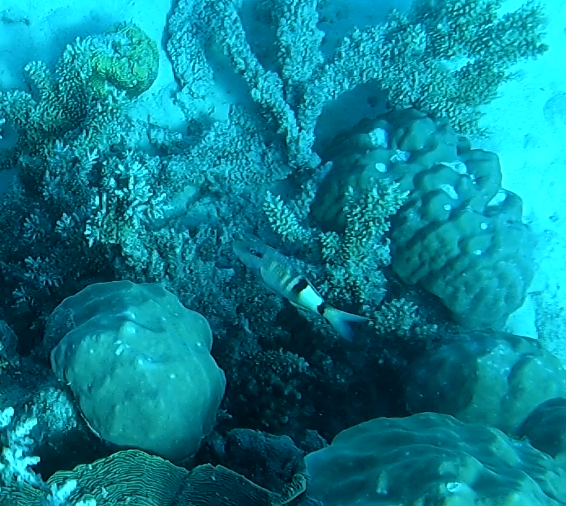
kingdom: Animalia
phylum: Chordata
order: Perciformes
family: Mullidae
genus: Parupeneus
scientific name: Parupeneus multifasciatus
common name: Manybar goatfish
